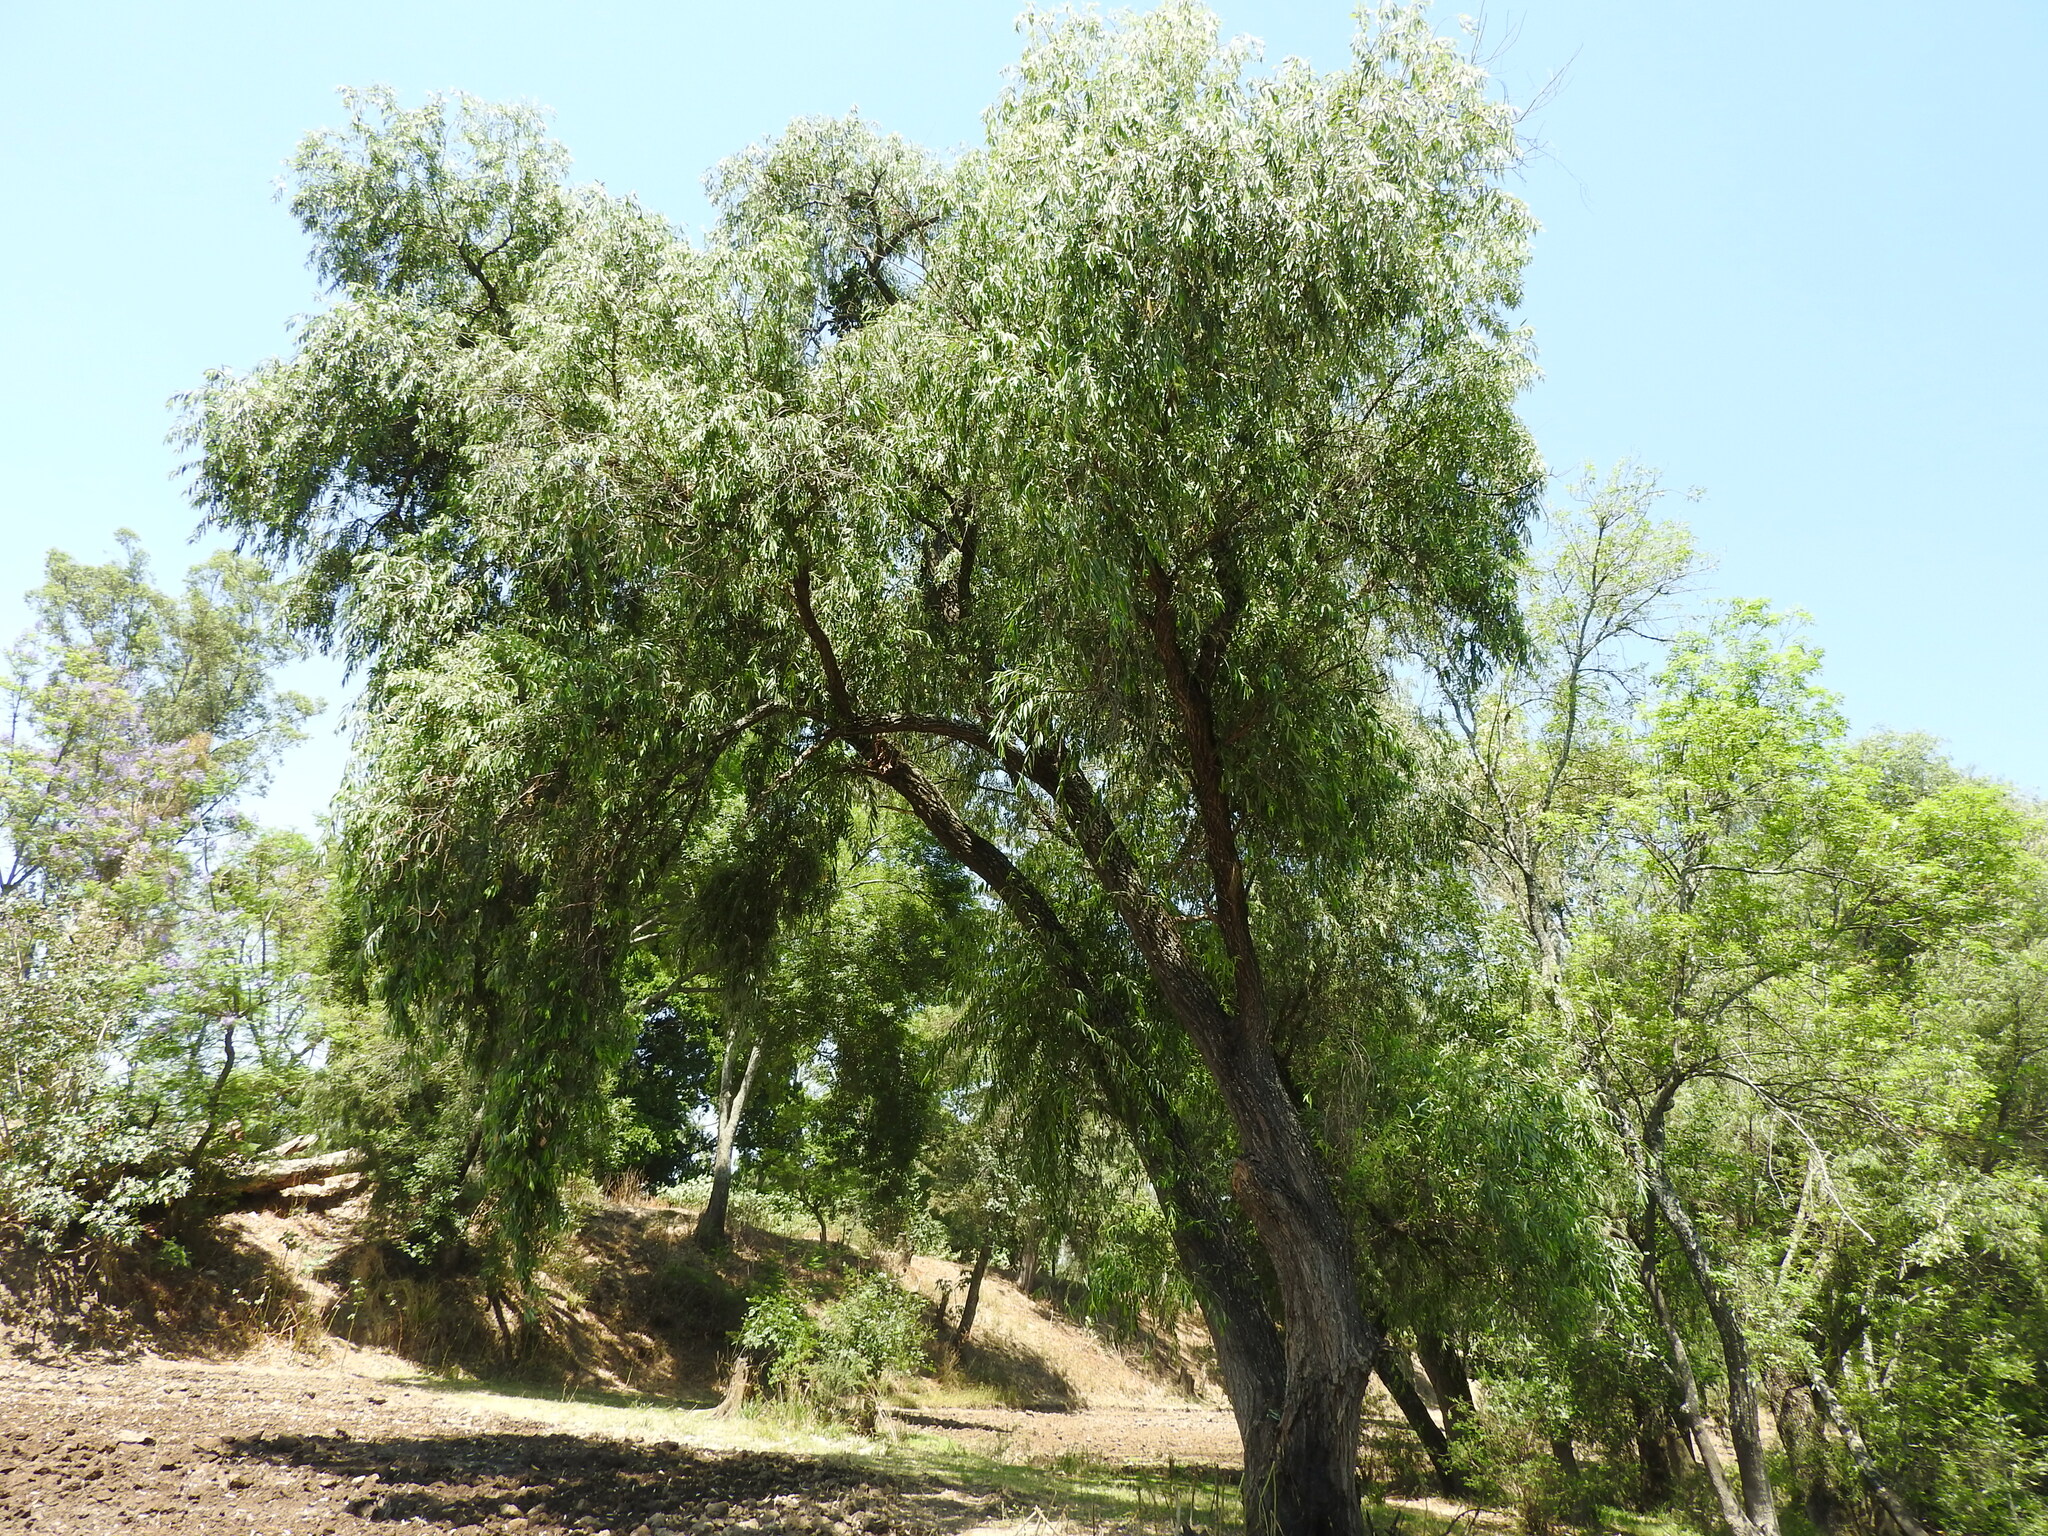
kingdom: Plantae
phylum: Tracheophyta
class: Magnoliopsida
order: Malpighiales
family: Salicaceae
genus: Salix
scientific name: Salix humboldtiana
